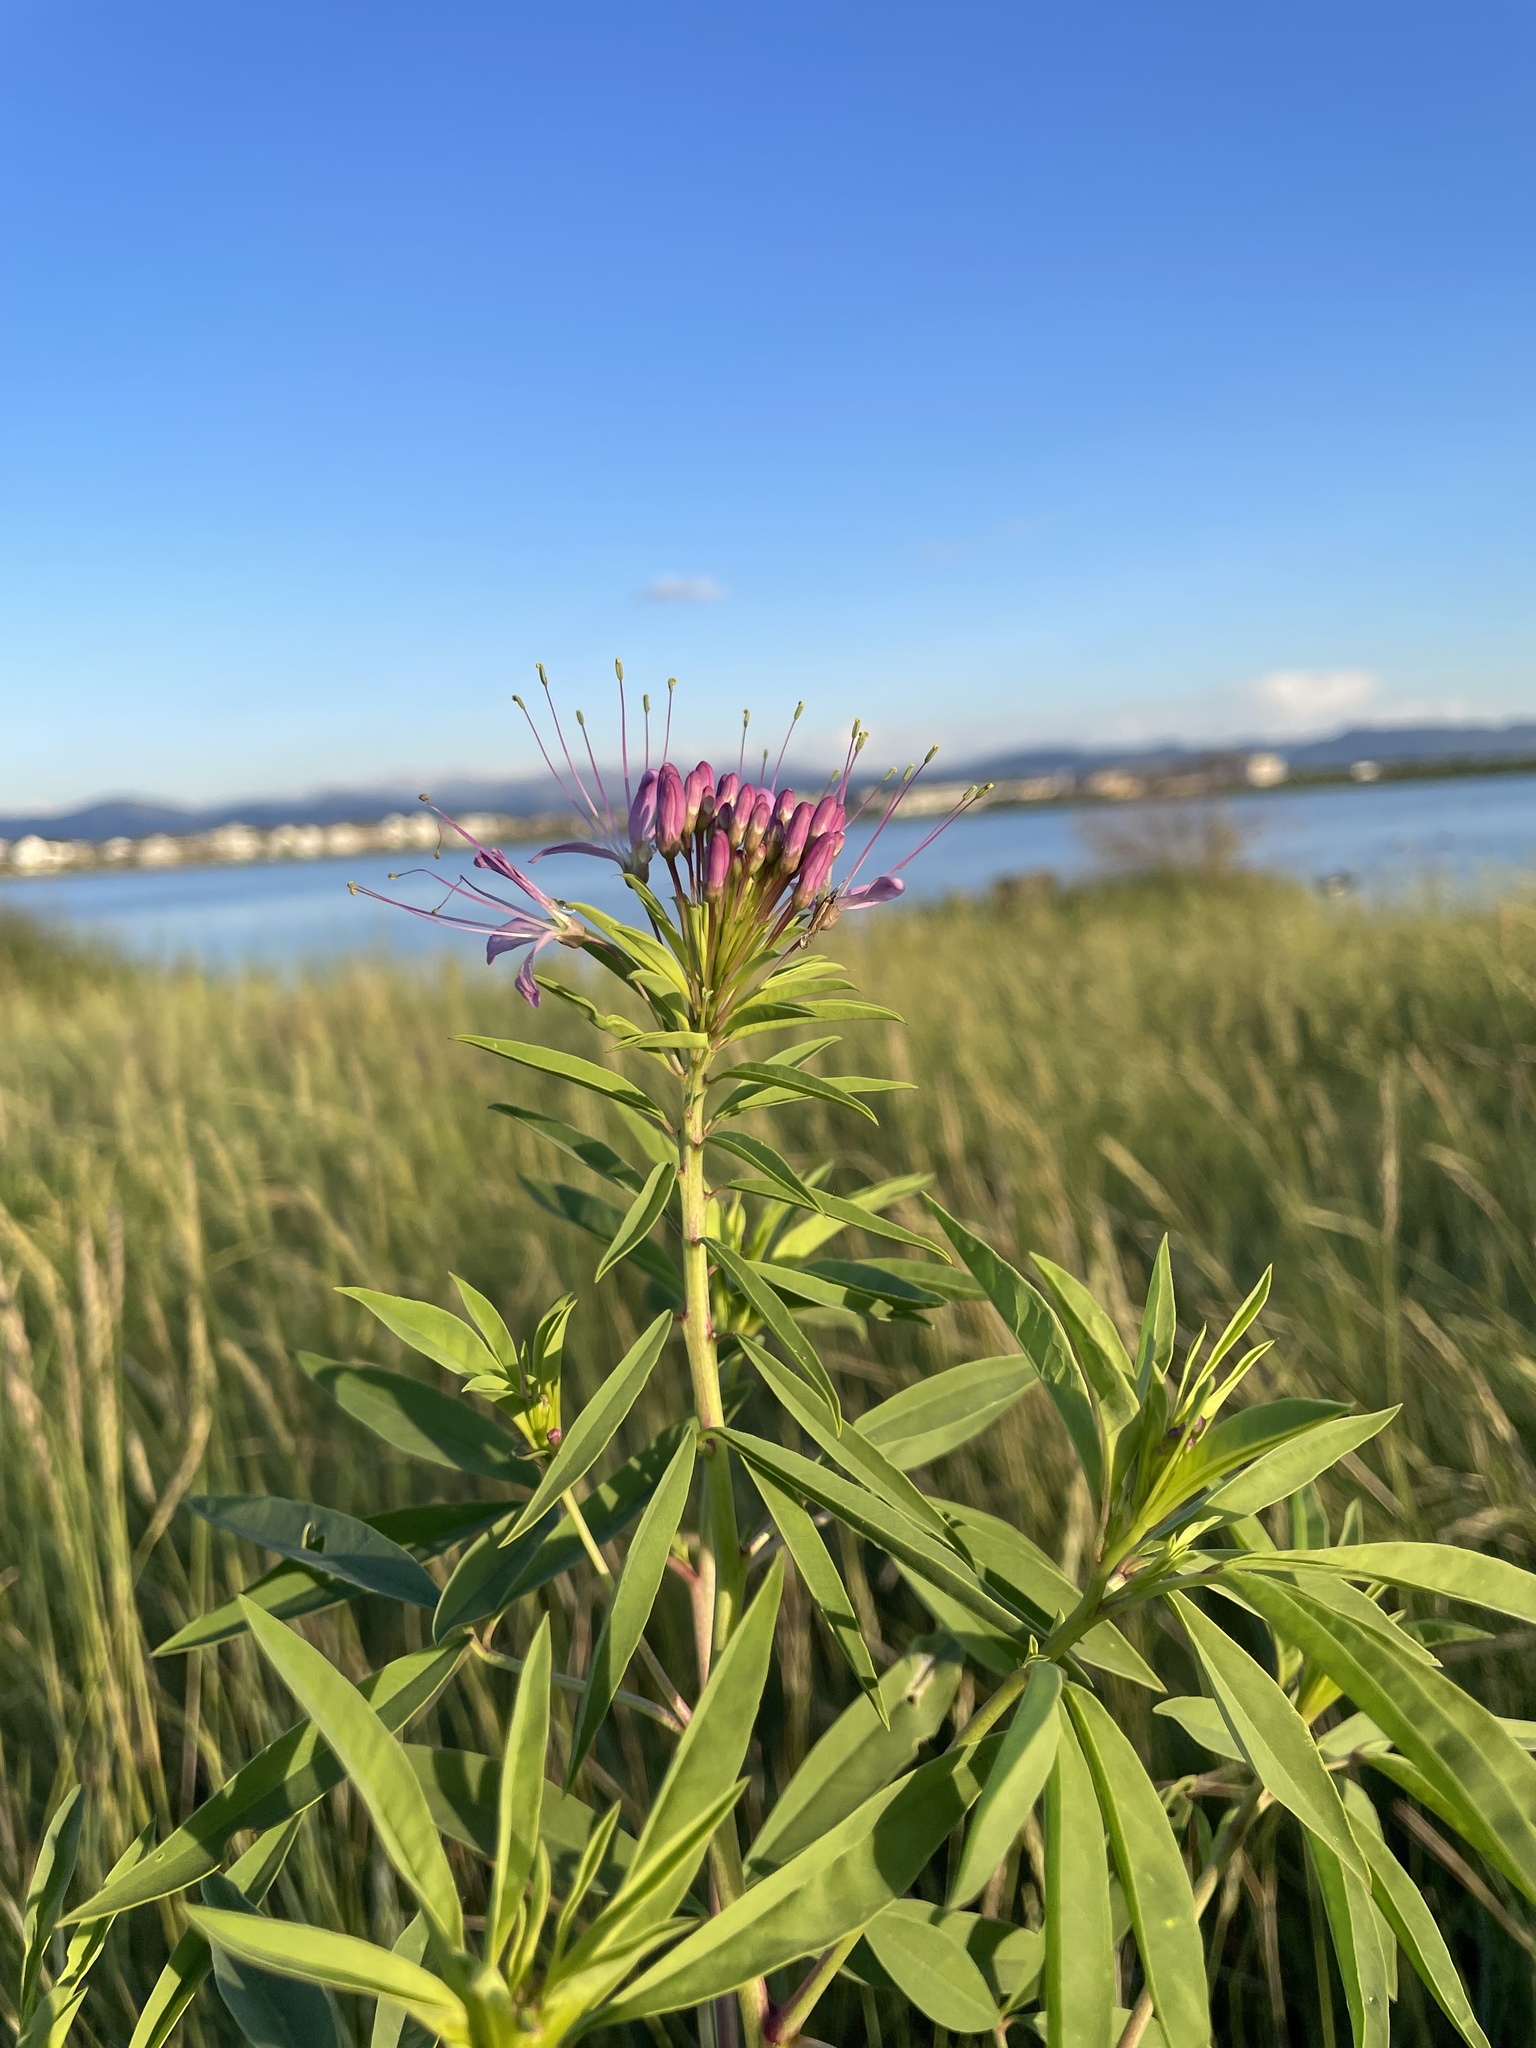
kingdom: Plantae
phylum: Tracheophyta
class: Magnoliopsida
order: Brassicales
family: Cleomaceae
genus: Cleomella
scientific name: Cleomella serrulata
